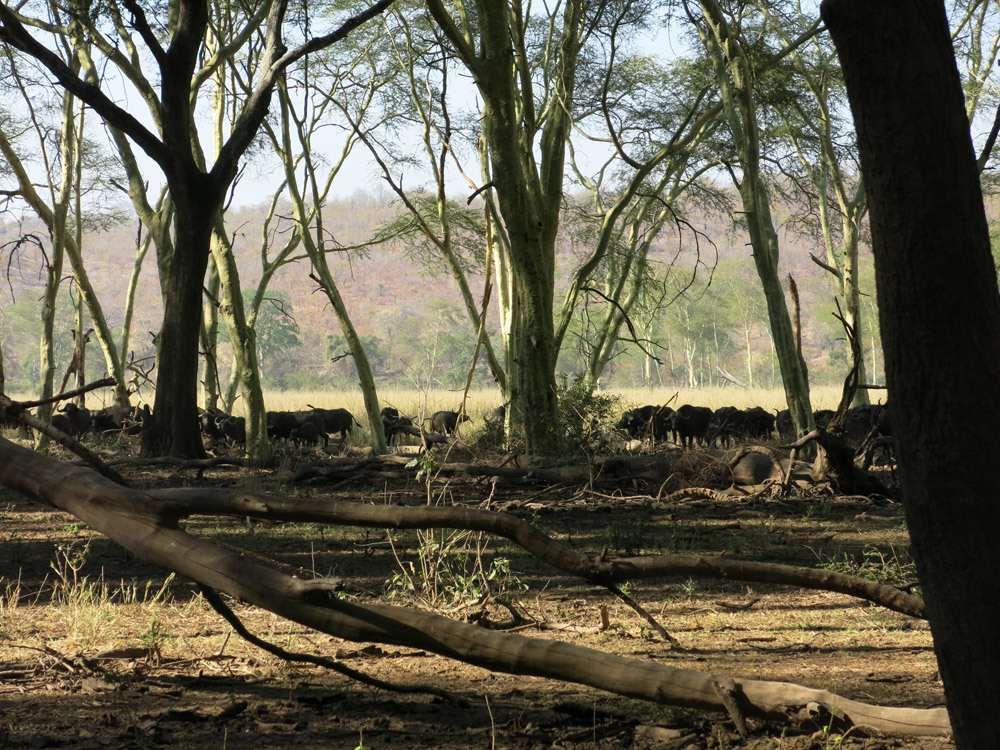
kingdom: Animalia
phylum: Chordata
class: Mammalia
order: Artiodactyla
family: Bovidae
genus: Syncerus
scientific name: Syncerus caffer
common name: African buffalo
